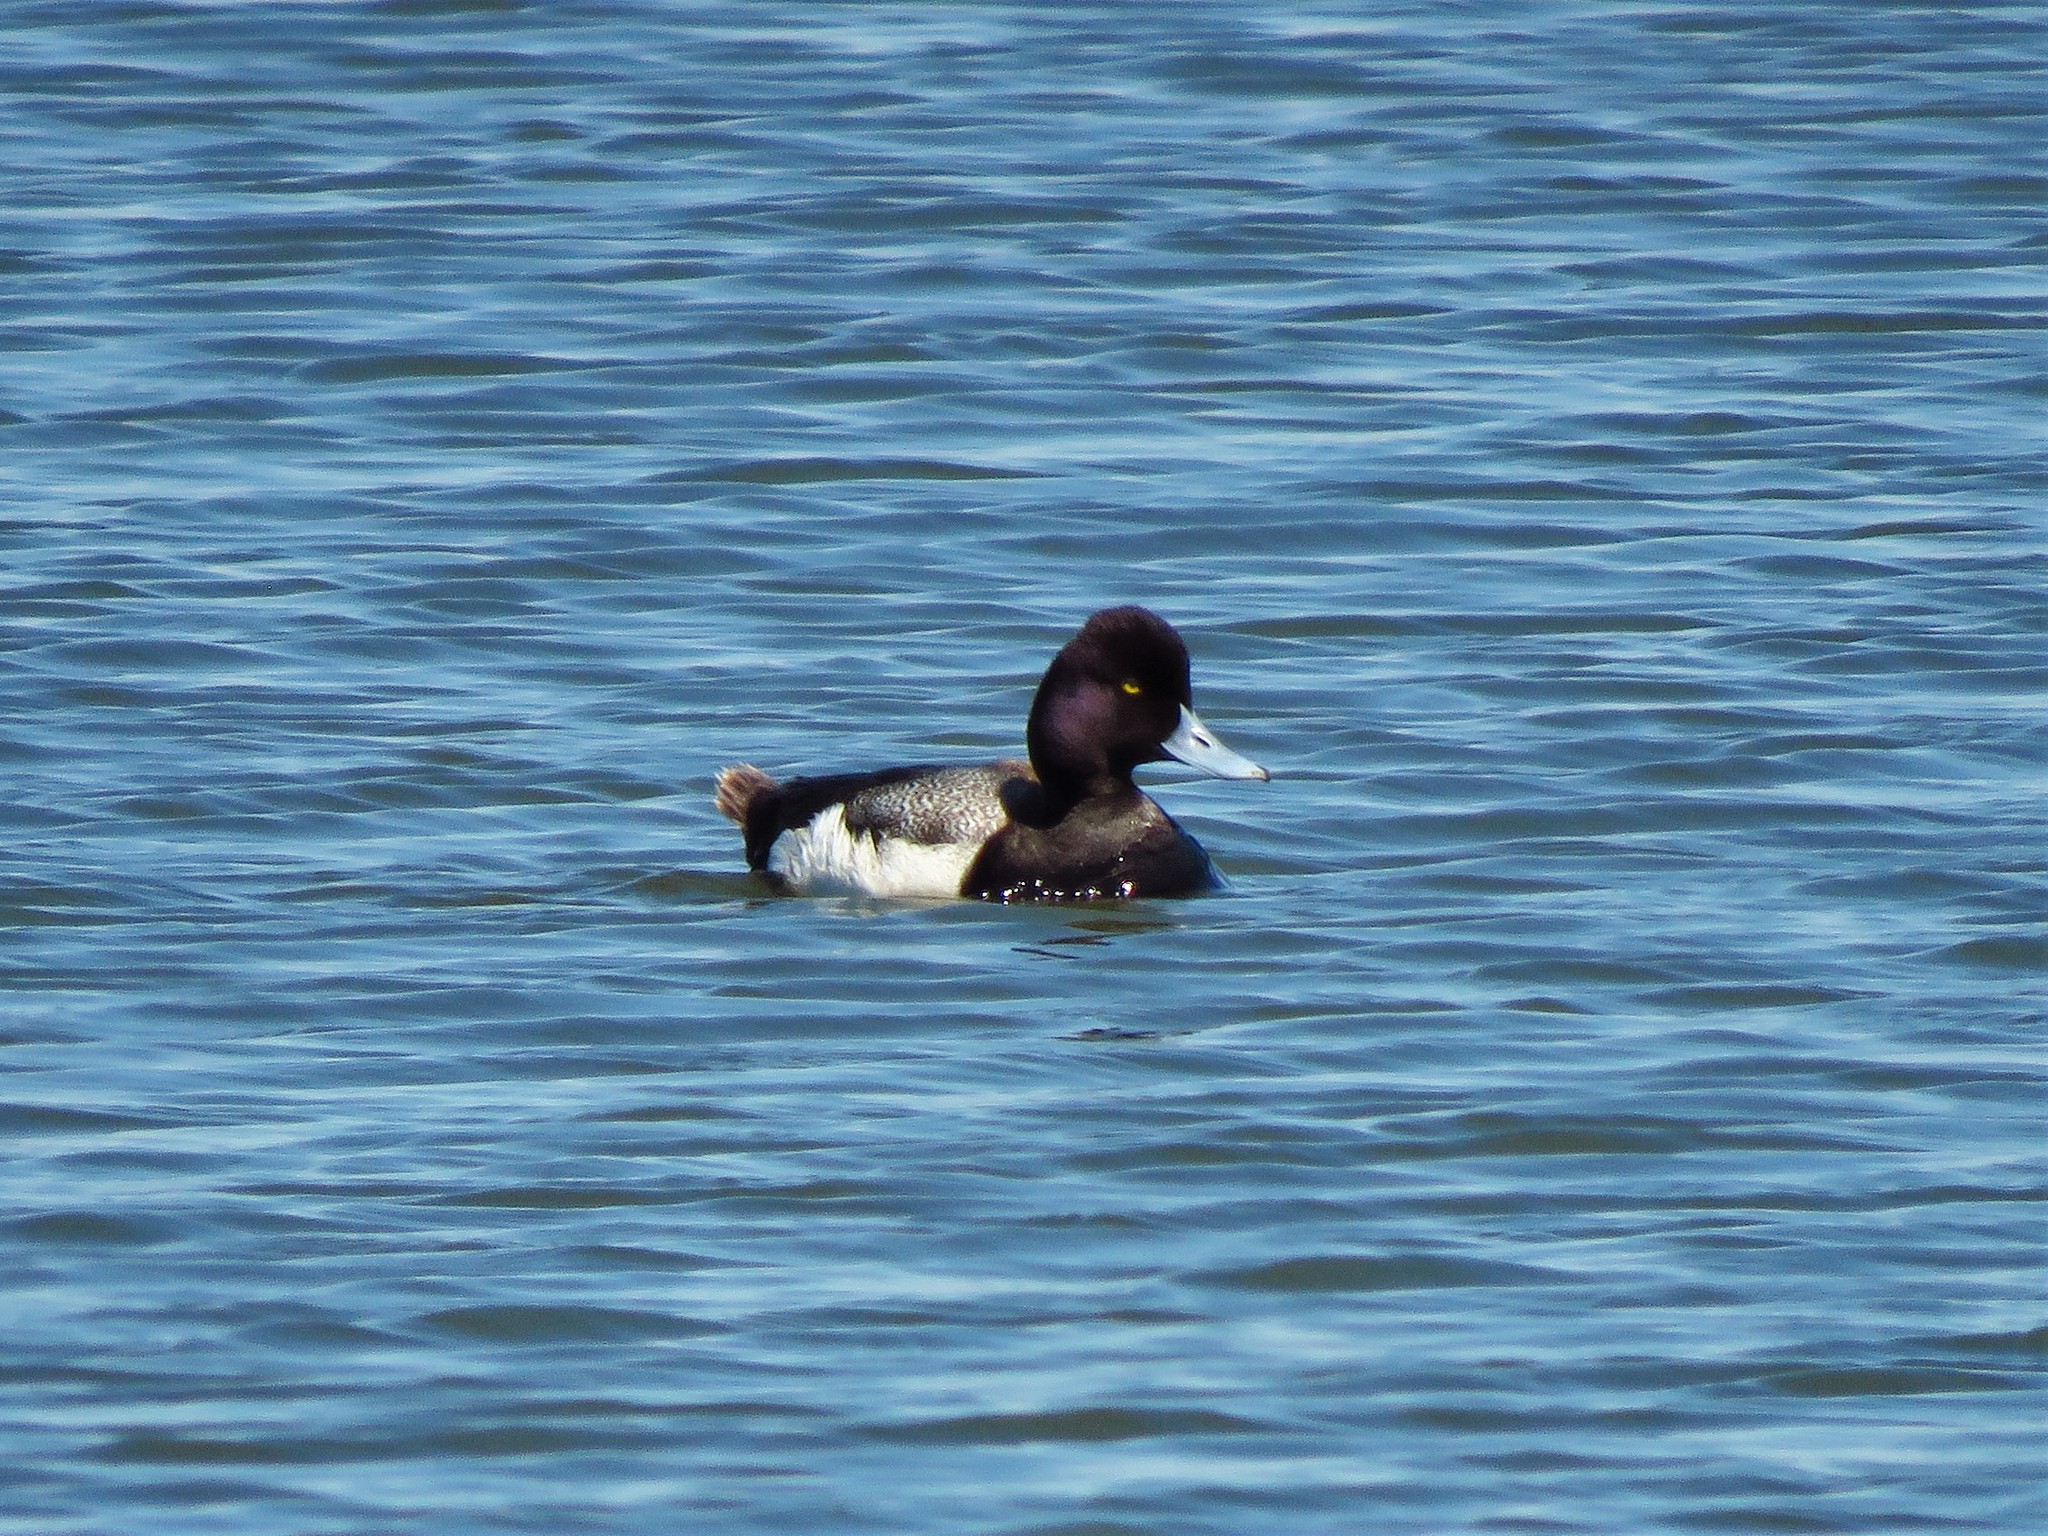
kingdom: Animalia
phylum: Chordata
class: Aves
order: Anseriformes
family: Anatidae
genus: Aythya
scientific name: Aythya affinis
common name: Lesser scaup
